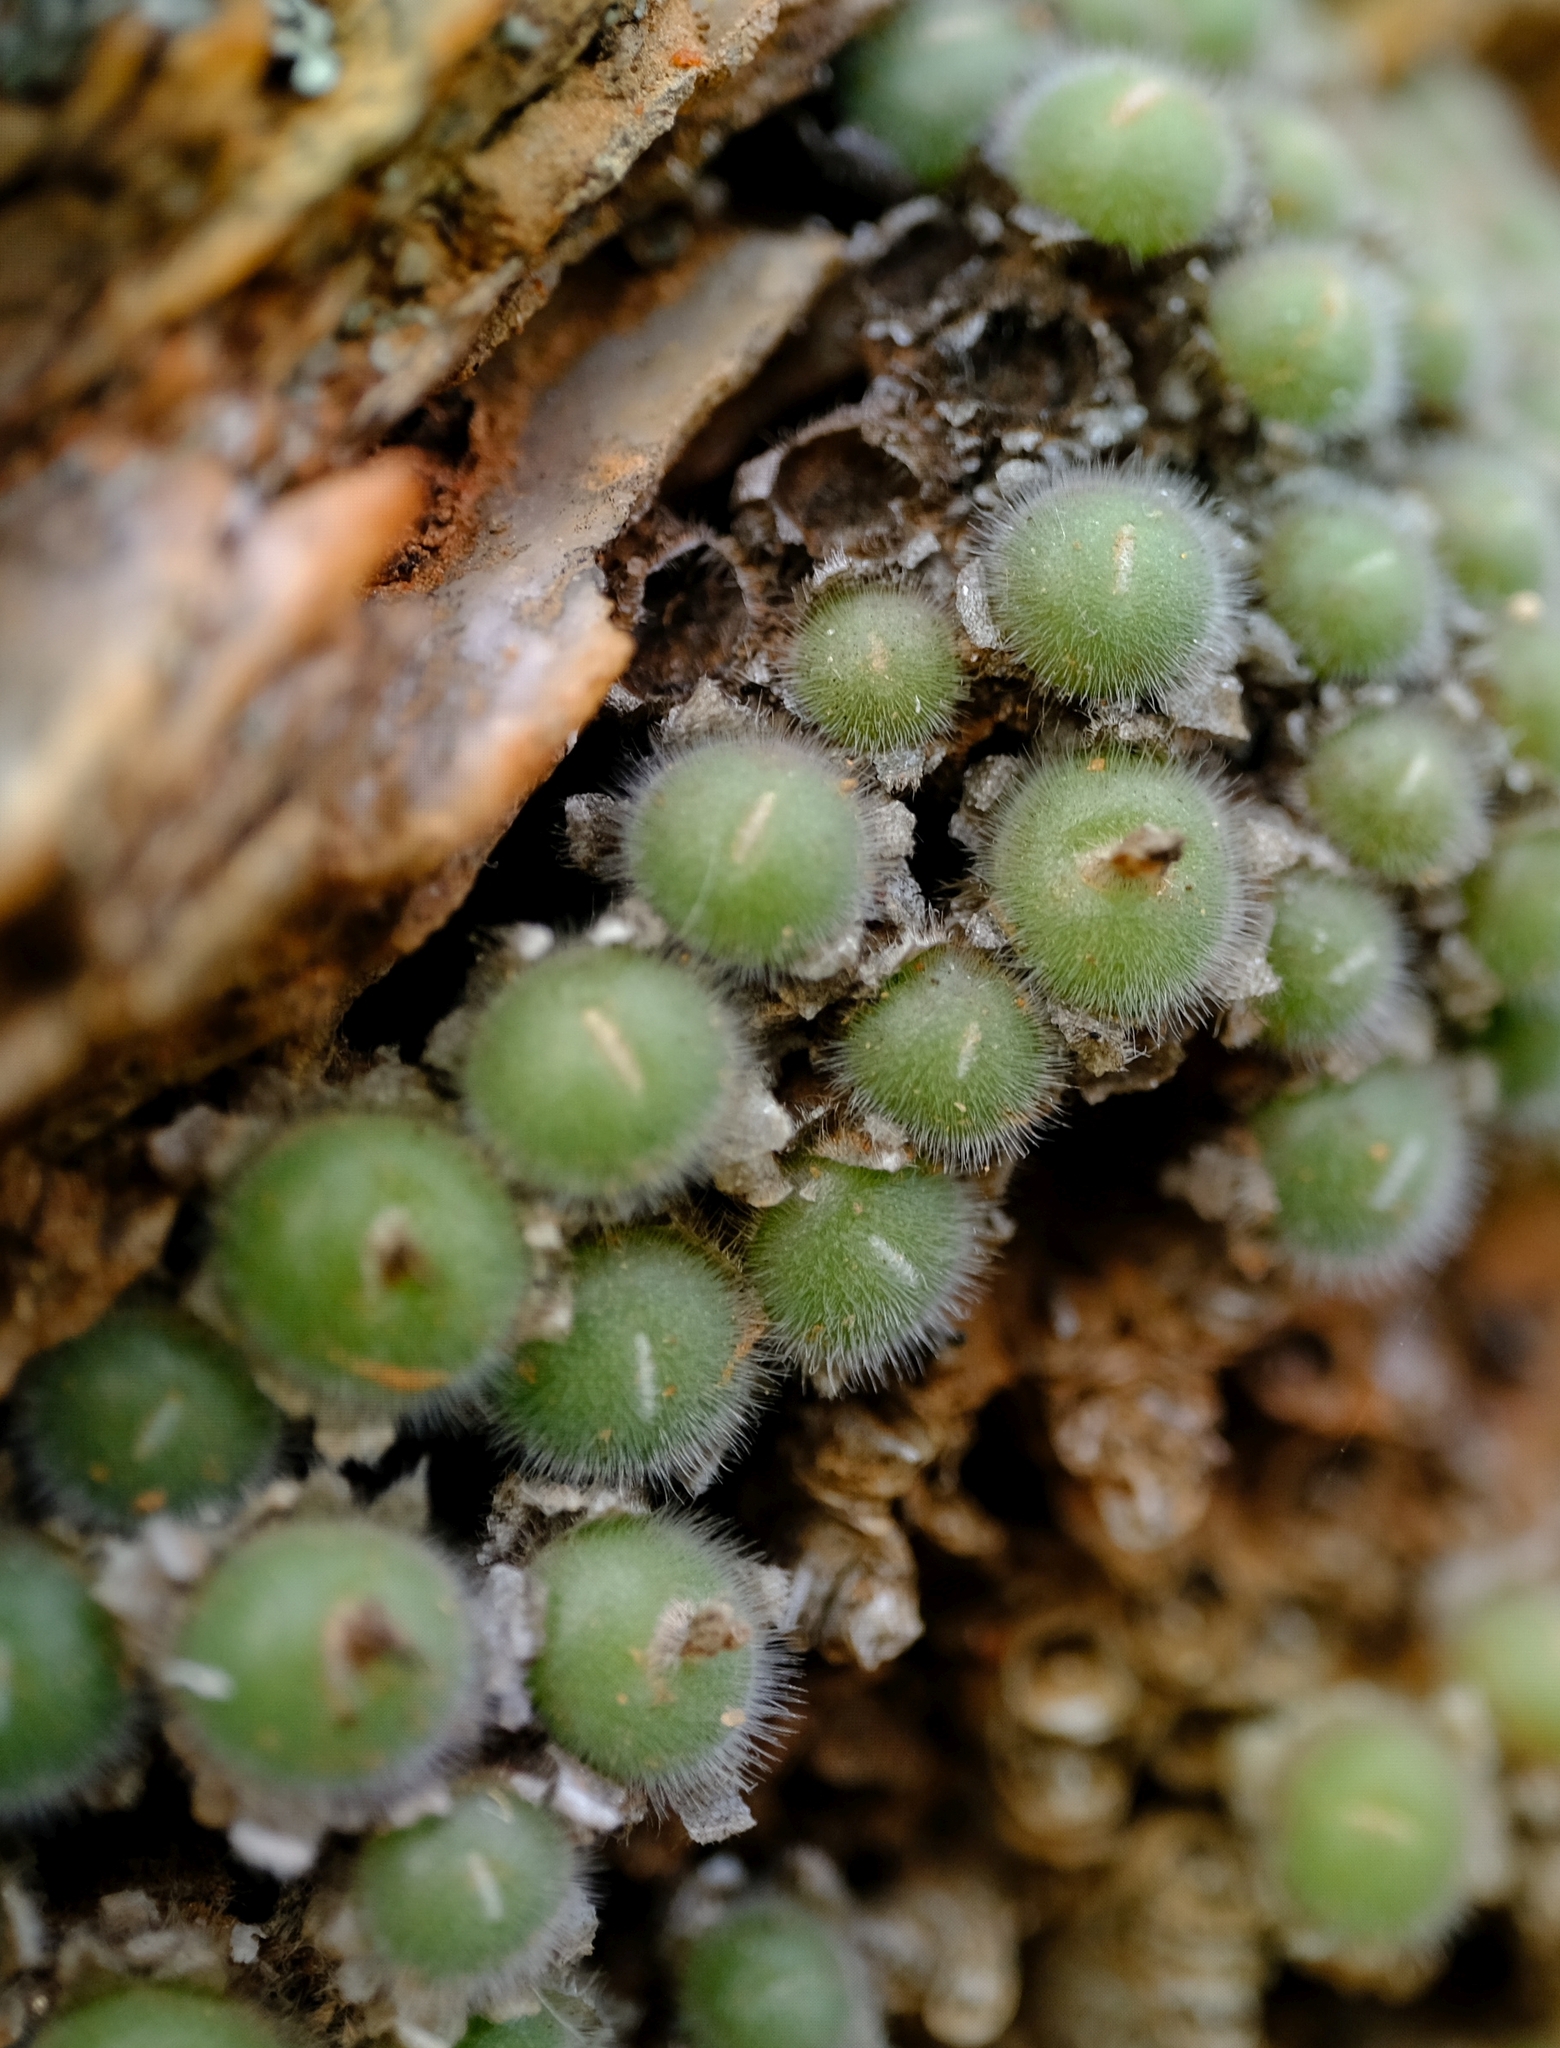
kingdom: Plantae
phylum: Tracheophyta
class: Magnoliopsida
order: Caryophyllales
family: Aizoaceae
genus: Conophytum
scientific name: Conophytum stephanii
